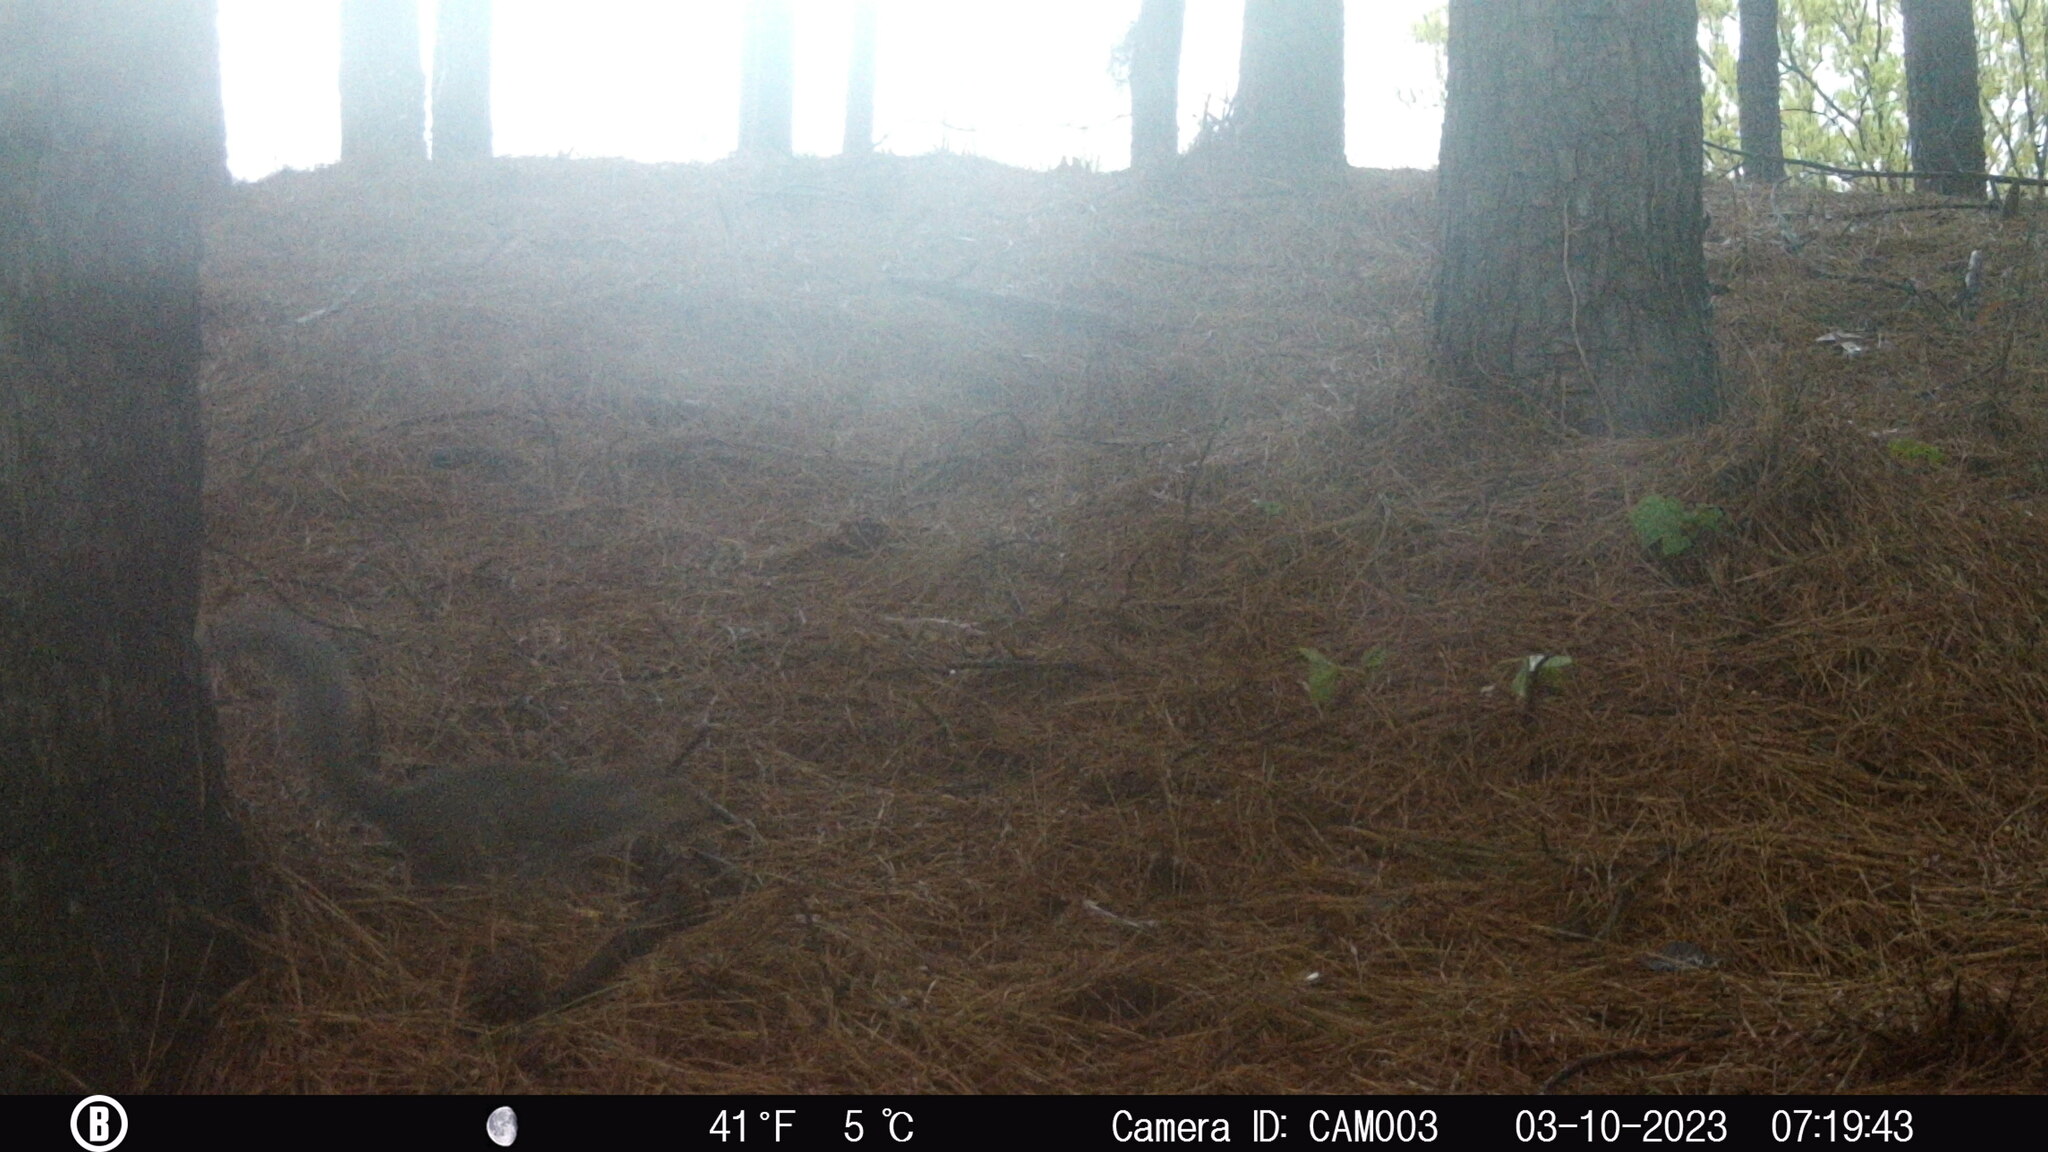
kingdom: Animalia
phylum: Chordata
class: Mammalia
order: Rodentia
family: Sciuridae
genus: Sciurus
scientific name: Sciurus carolinensis
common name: Eastern gray squirrel
